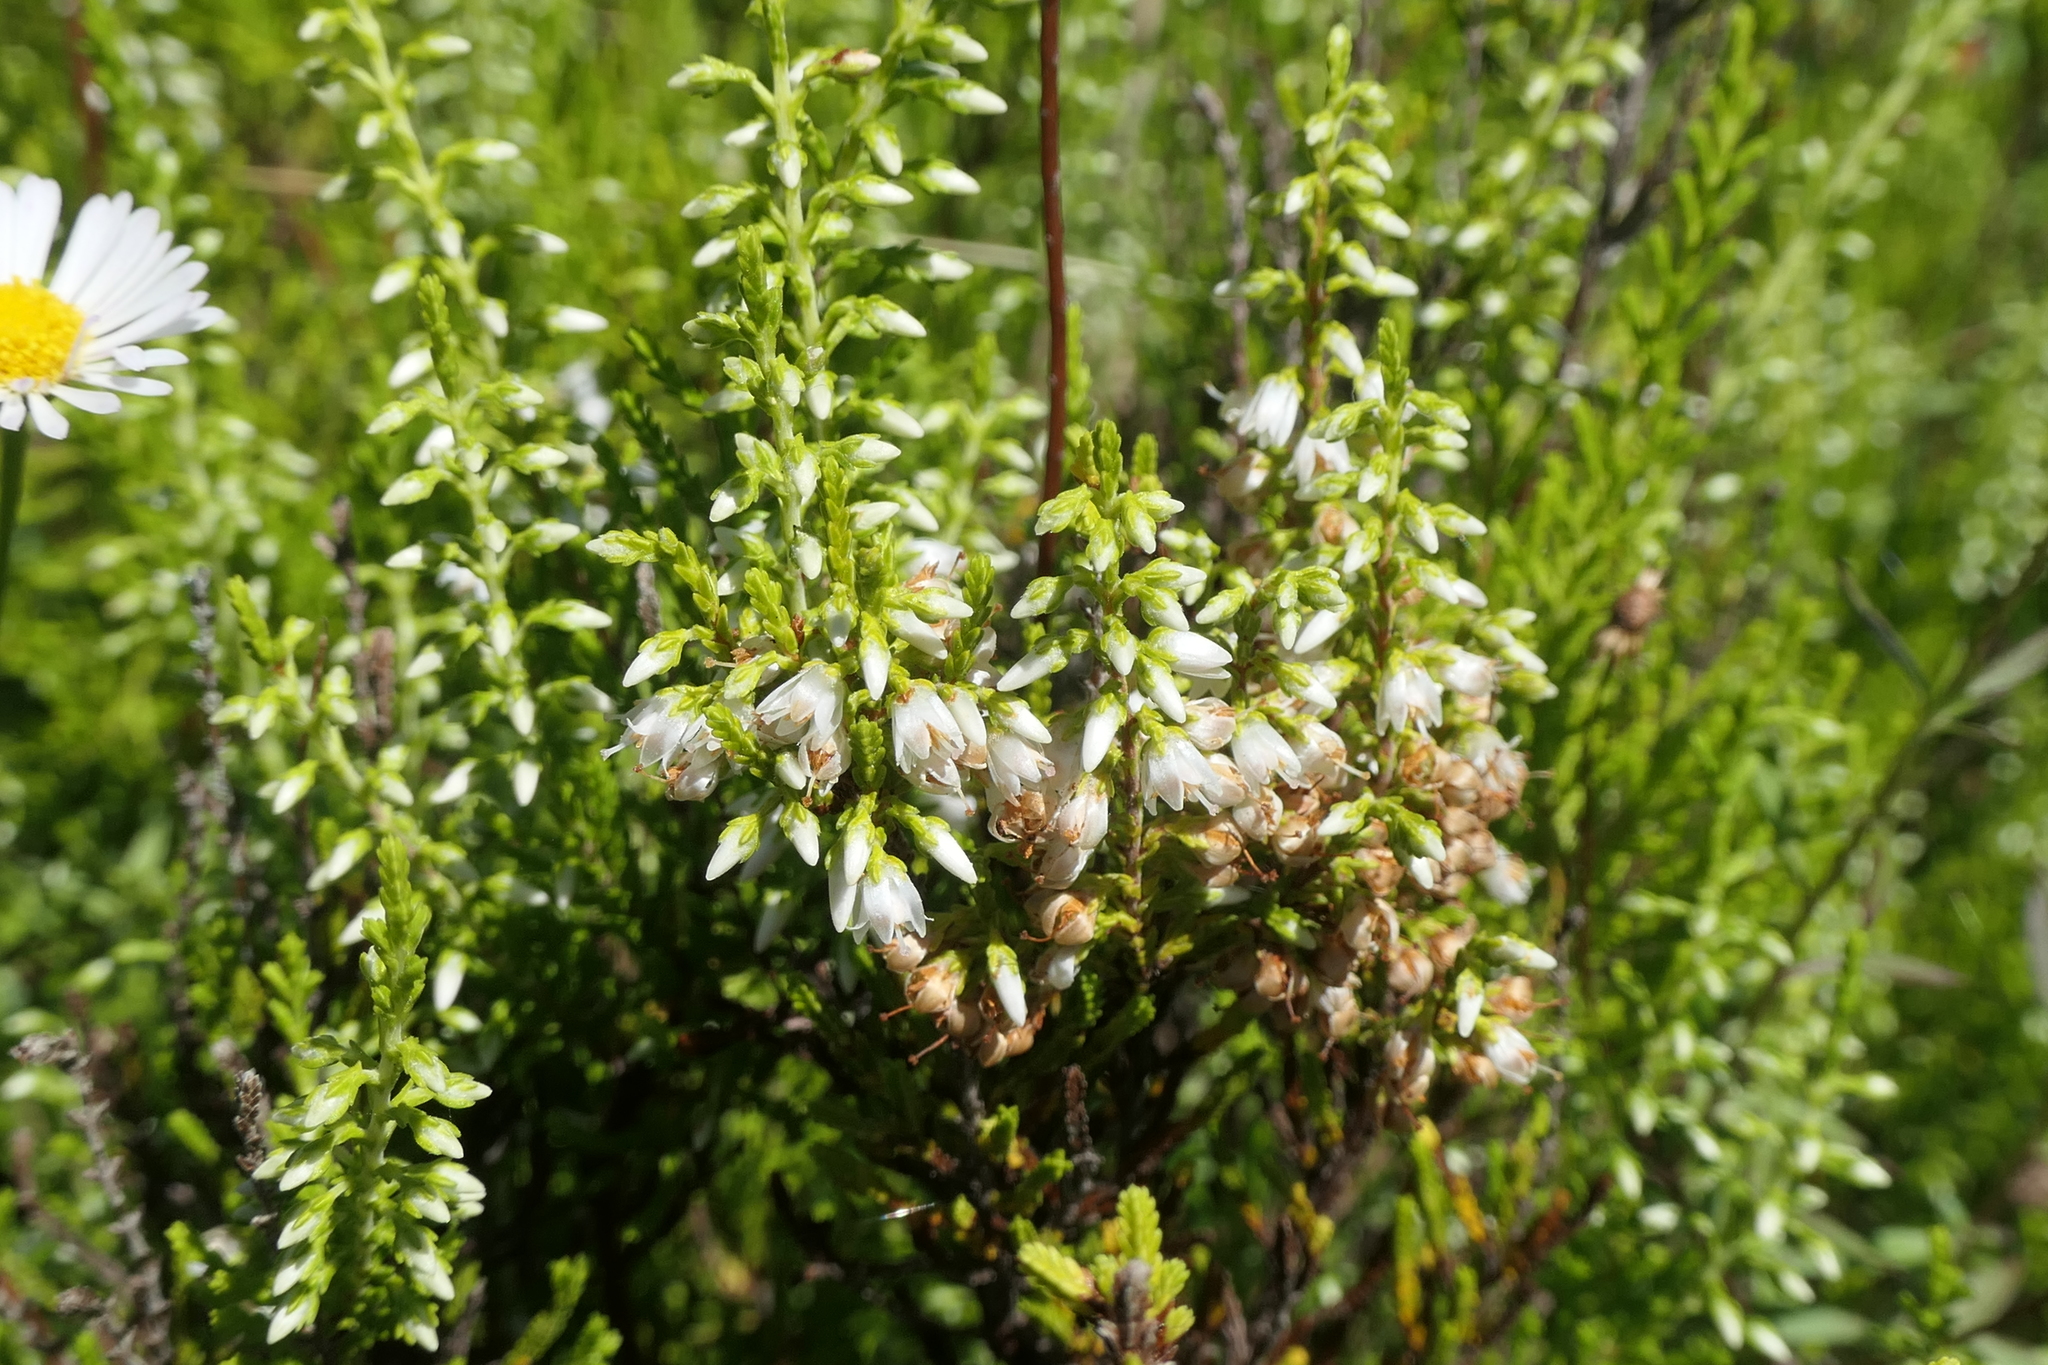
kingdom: Plantae
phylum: Tracheophyta
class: Magnoliopsida
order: Ericales
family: Ericaceae
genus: Calluna
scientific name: Calluna vulgaris
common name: Heather
